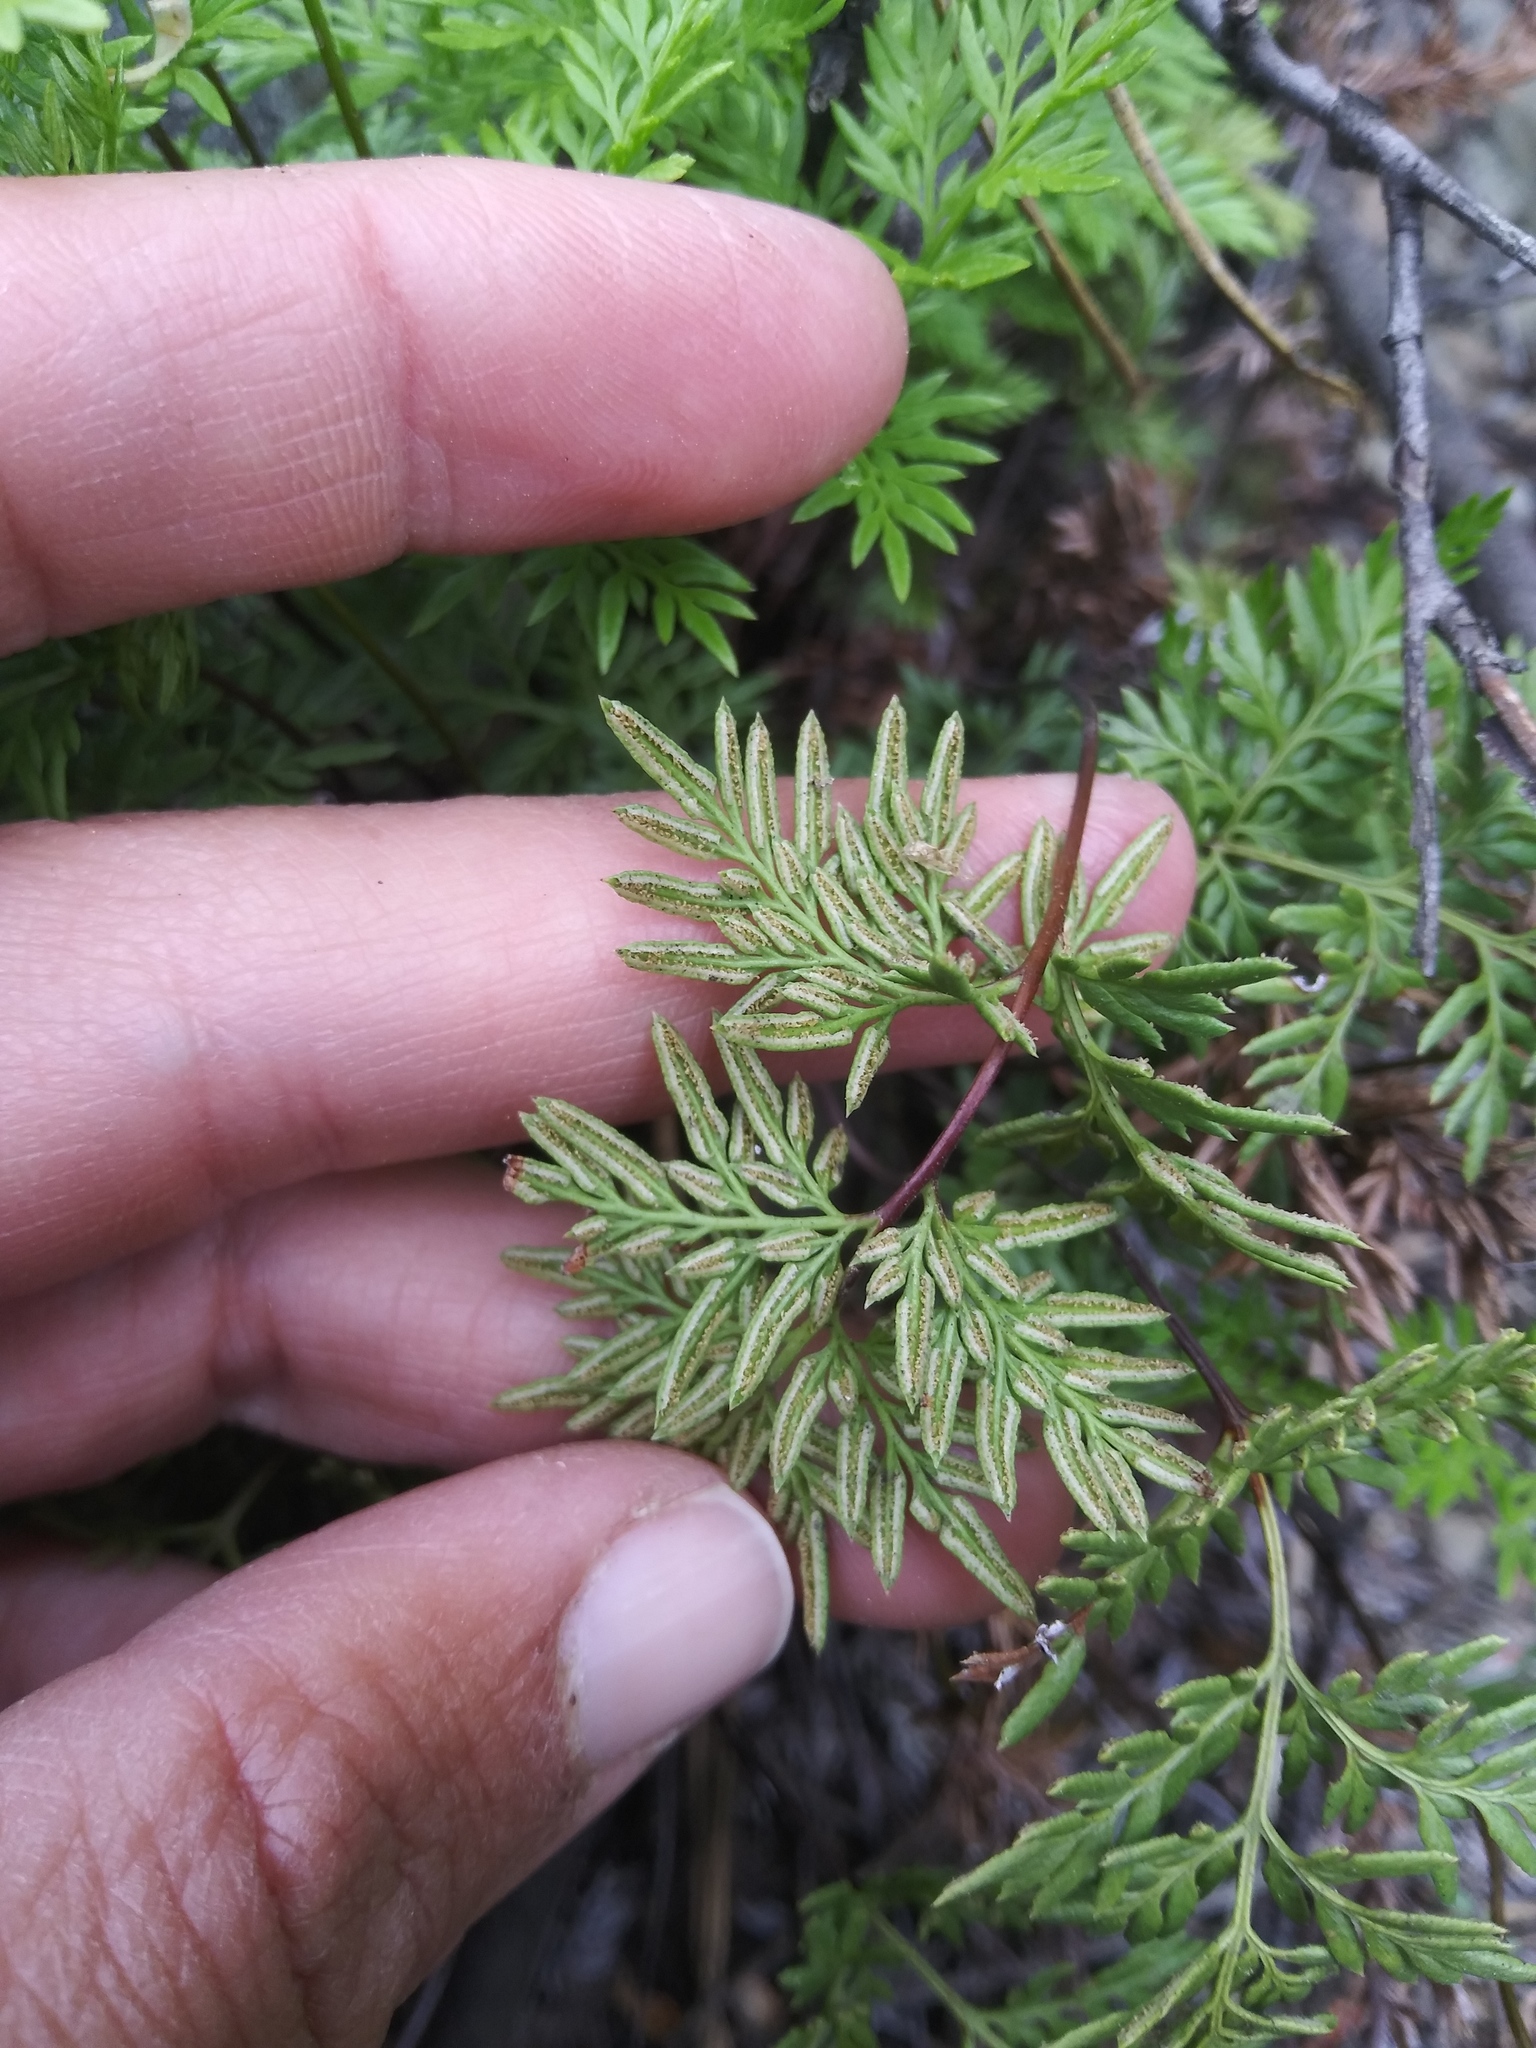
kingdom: Plantae
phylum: Tracheophyta
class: Polypodiopsida
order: Polypodiales
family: Pteridaceae
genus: Aspidotis
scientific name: Aspidotis densa
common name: Indian's dream
